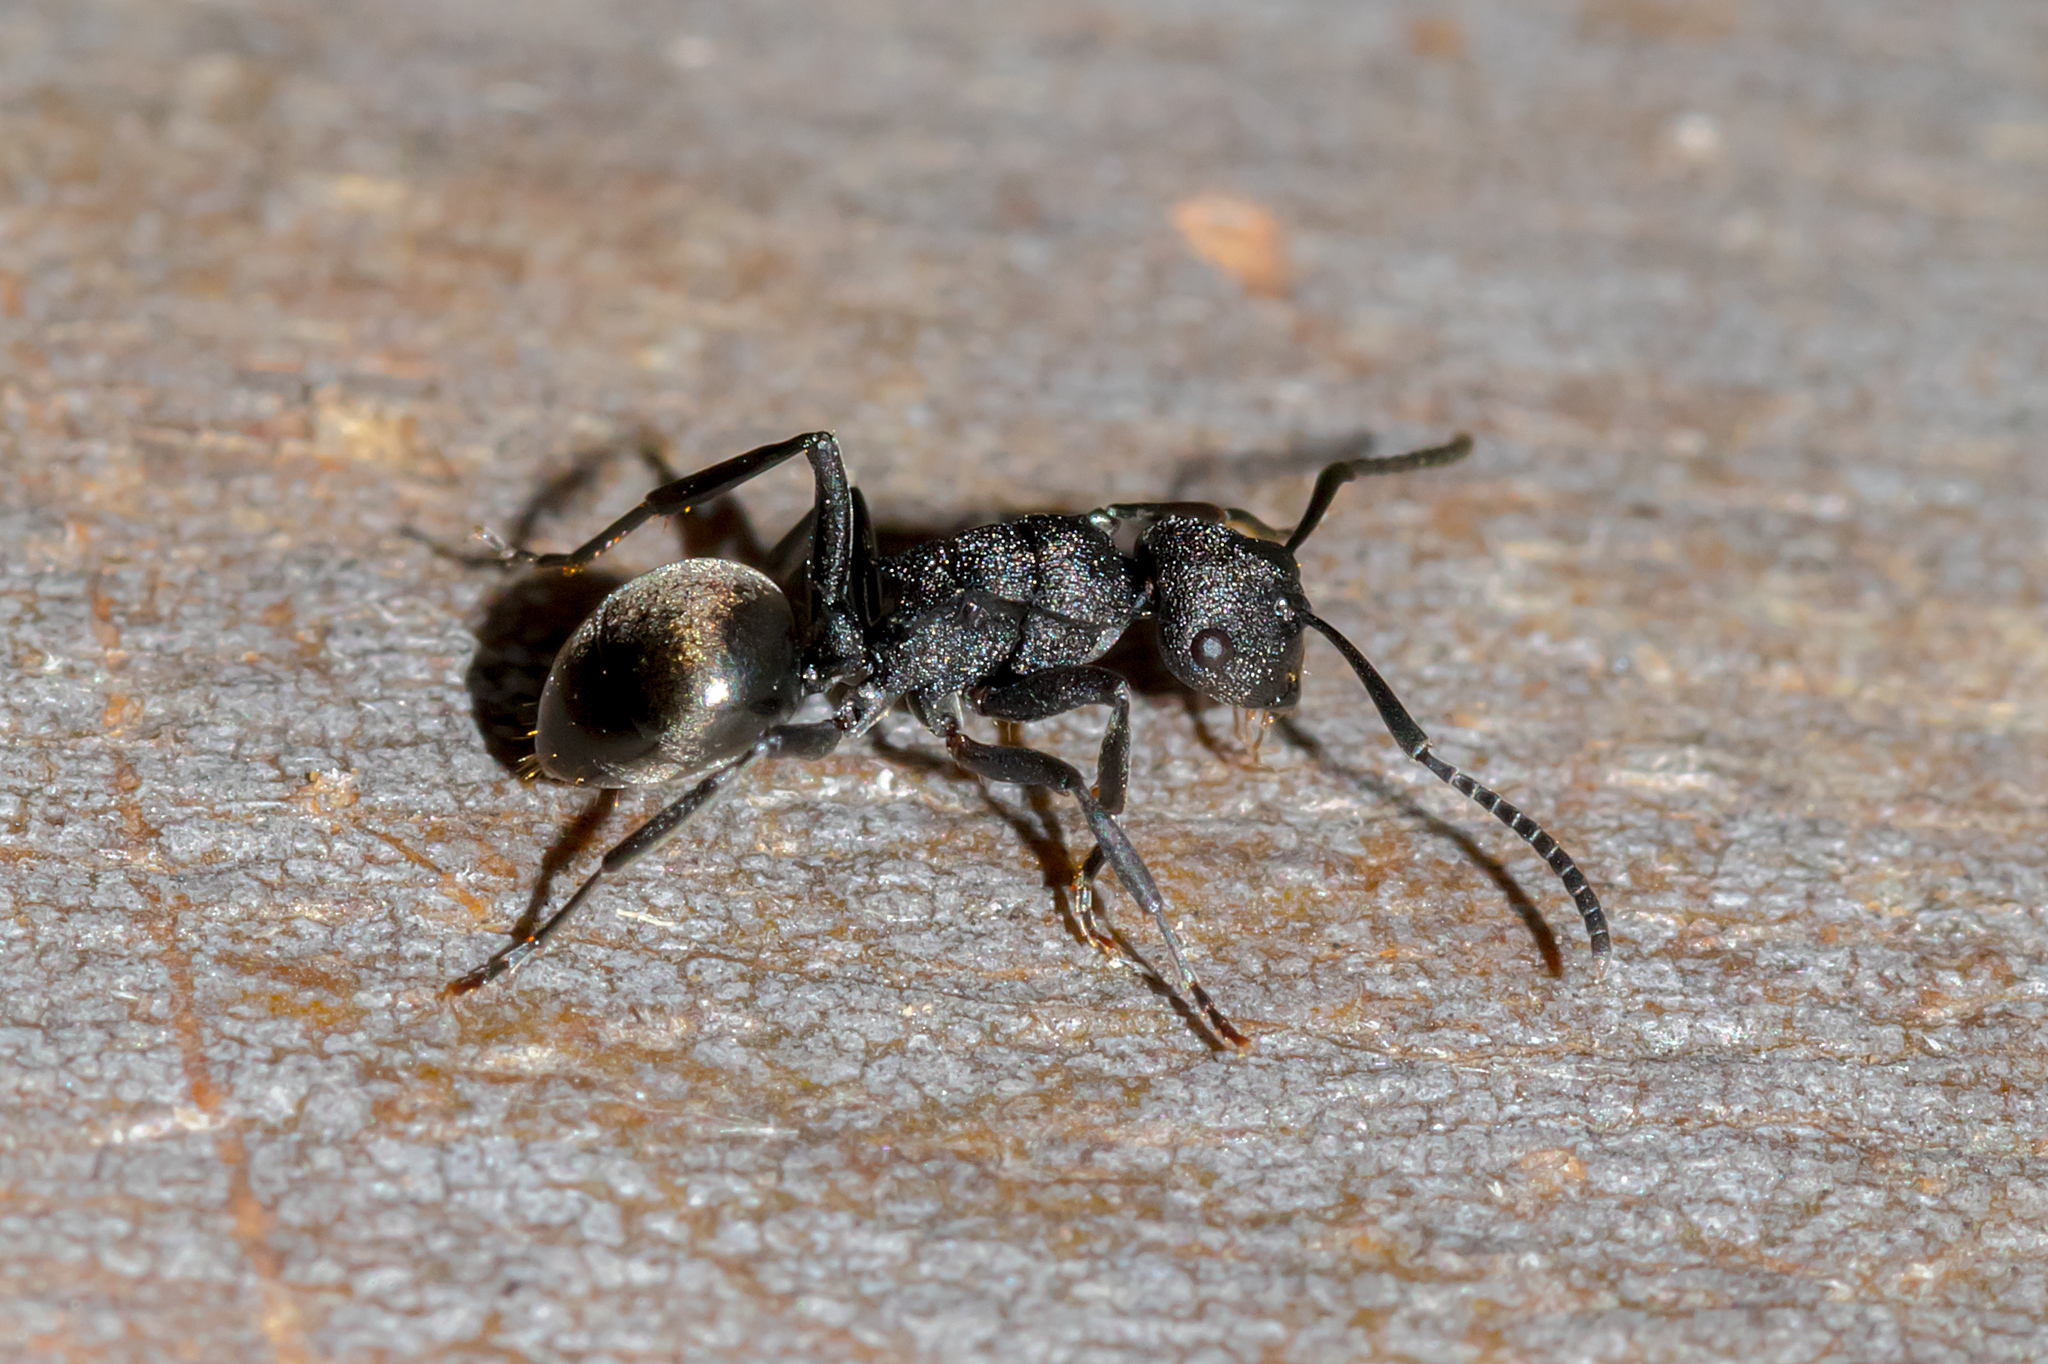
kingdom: Animalia
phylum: Arthropoda
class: Insecta
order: Hymenoptera
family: Formicidae
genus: Polyrhachis
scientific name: Polyrhachis phryne
